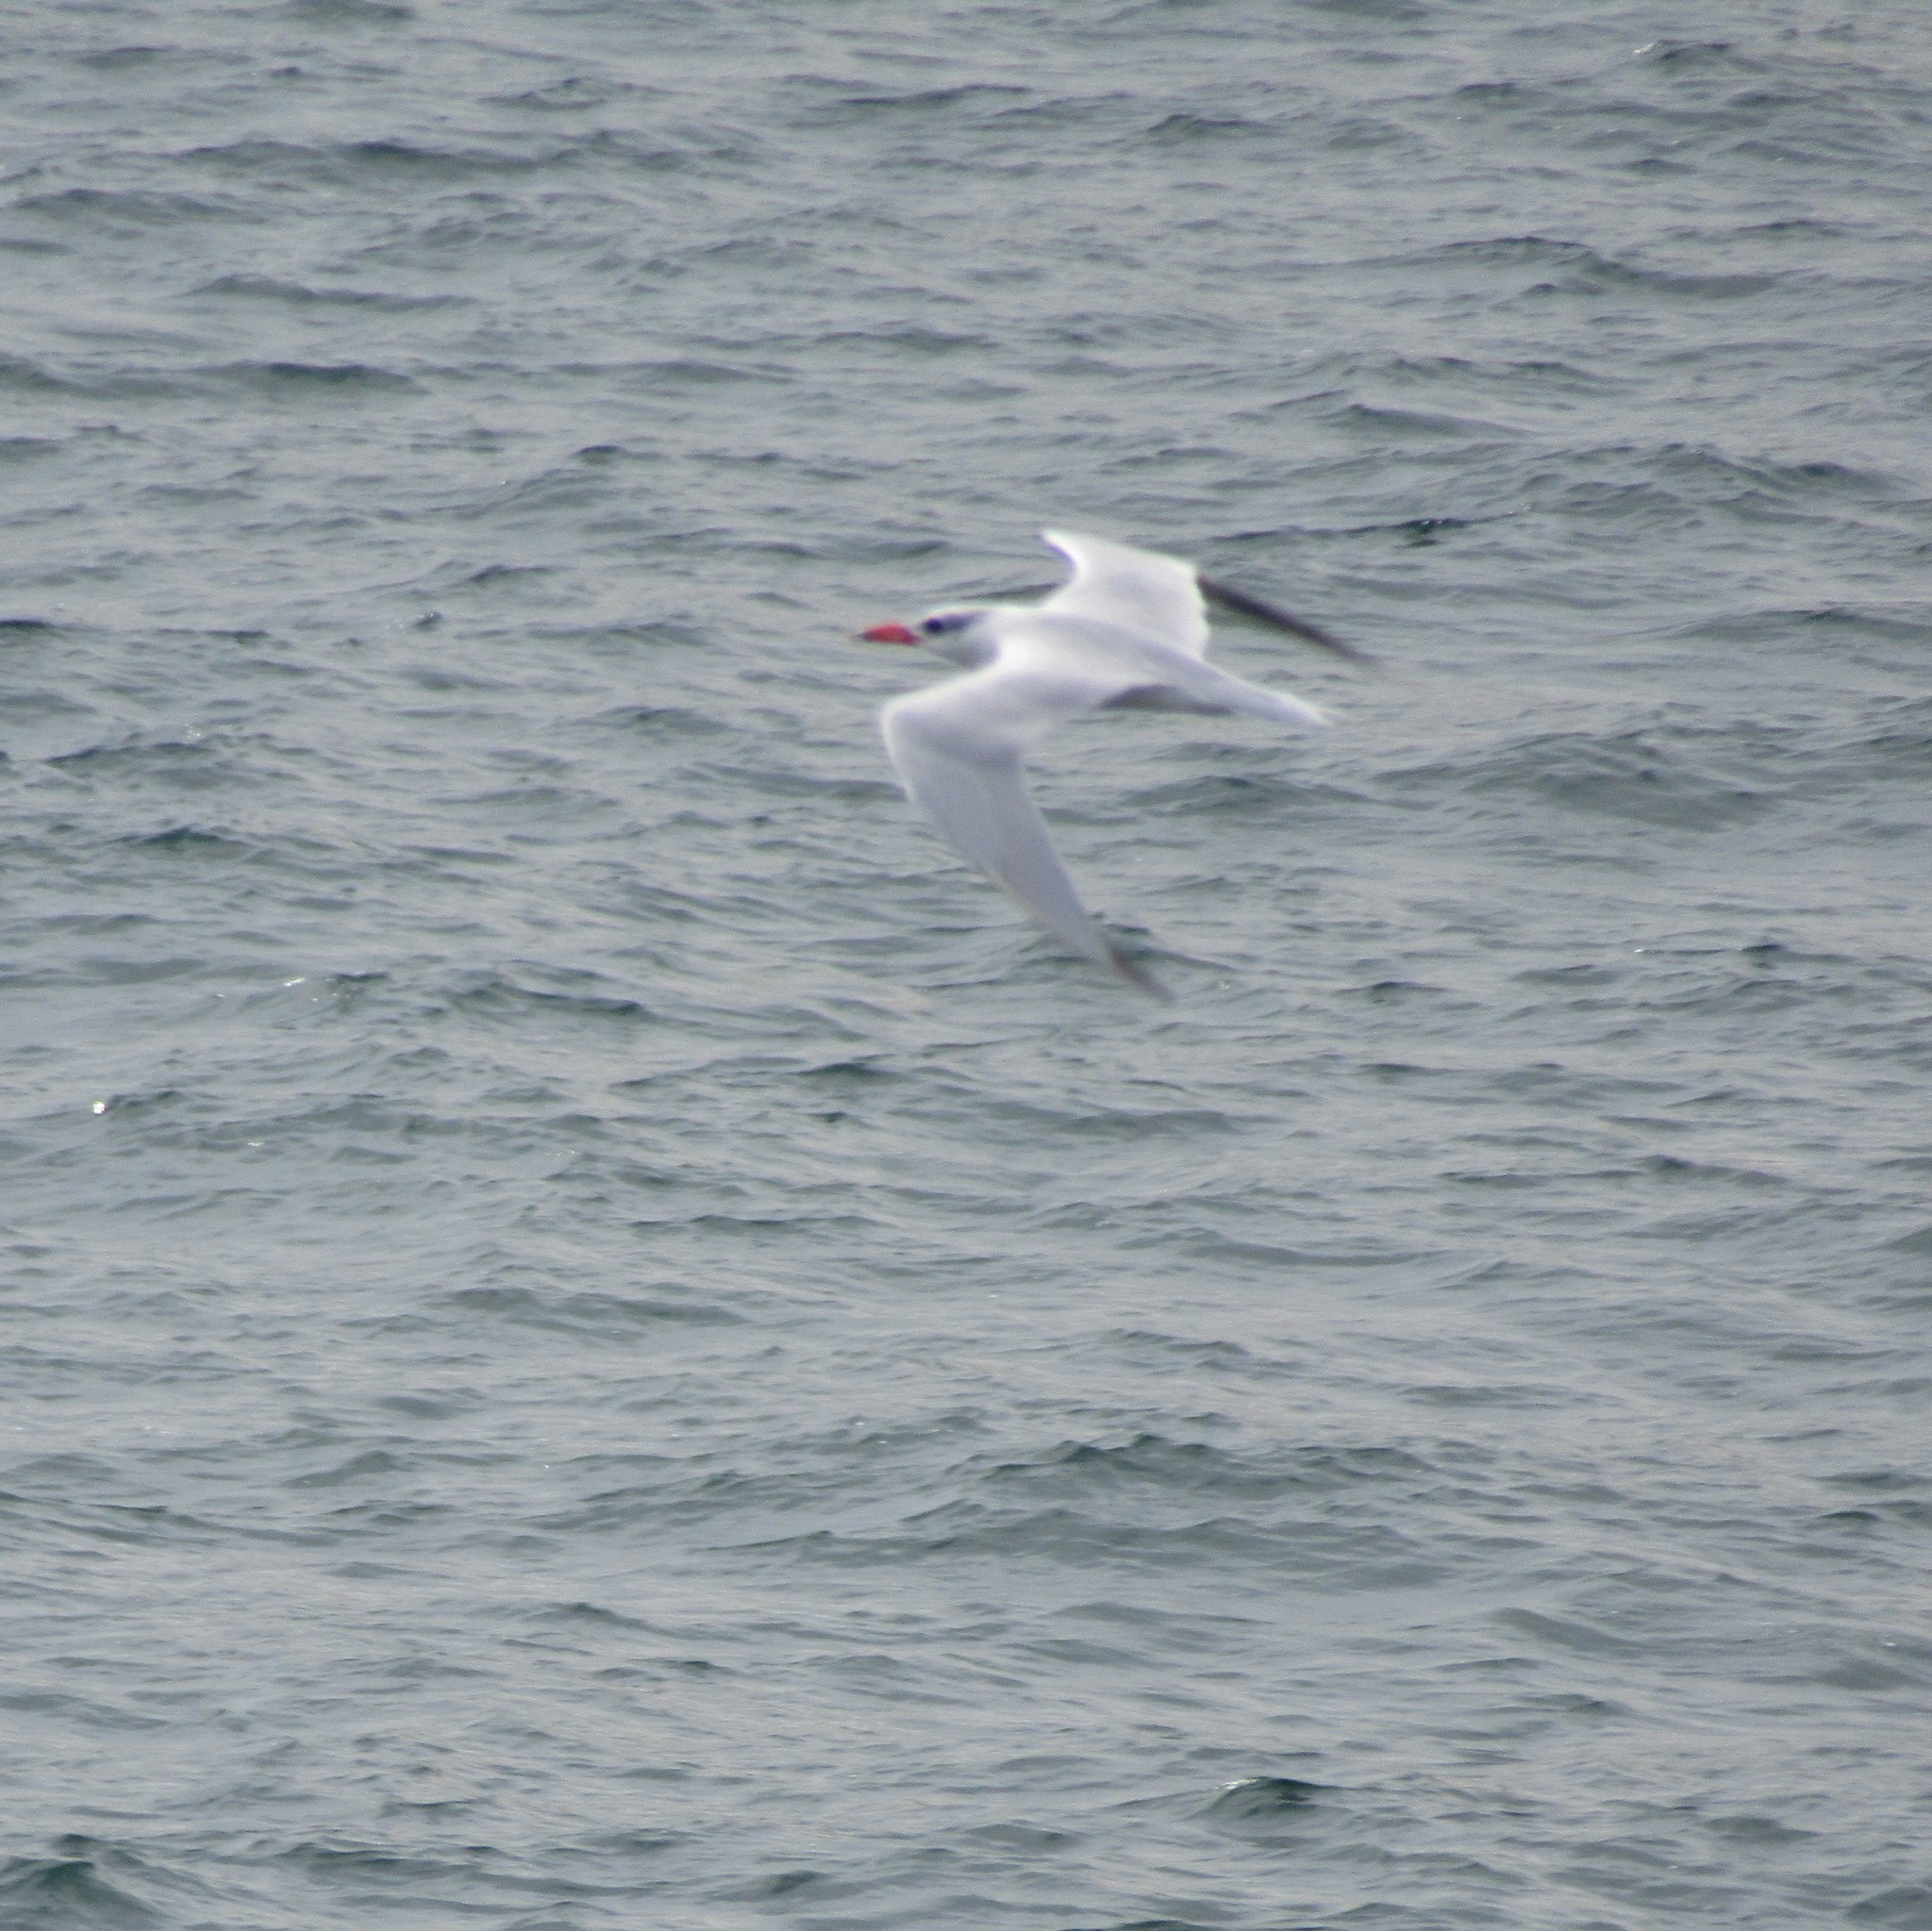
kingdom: Animalia
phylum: Chordata
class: Aves
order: Charadriiformes
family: Laridae
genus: Hydroprogne
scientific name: Hydroprogne caspia
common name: Caspian tern
